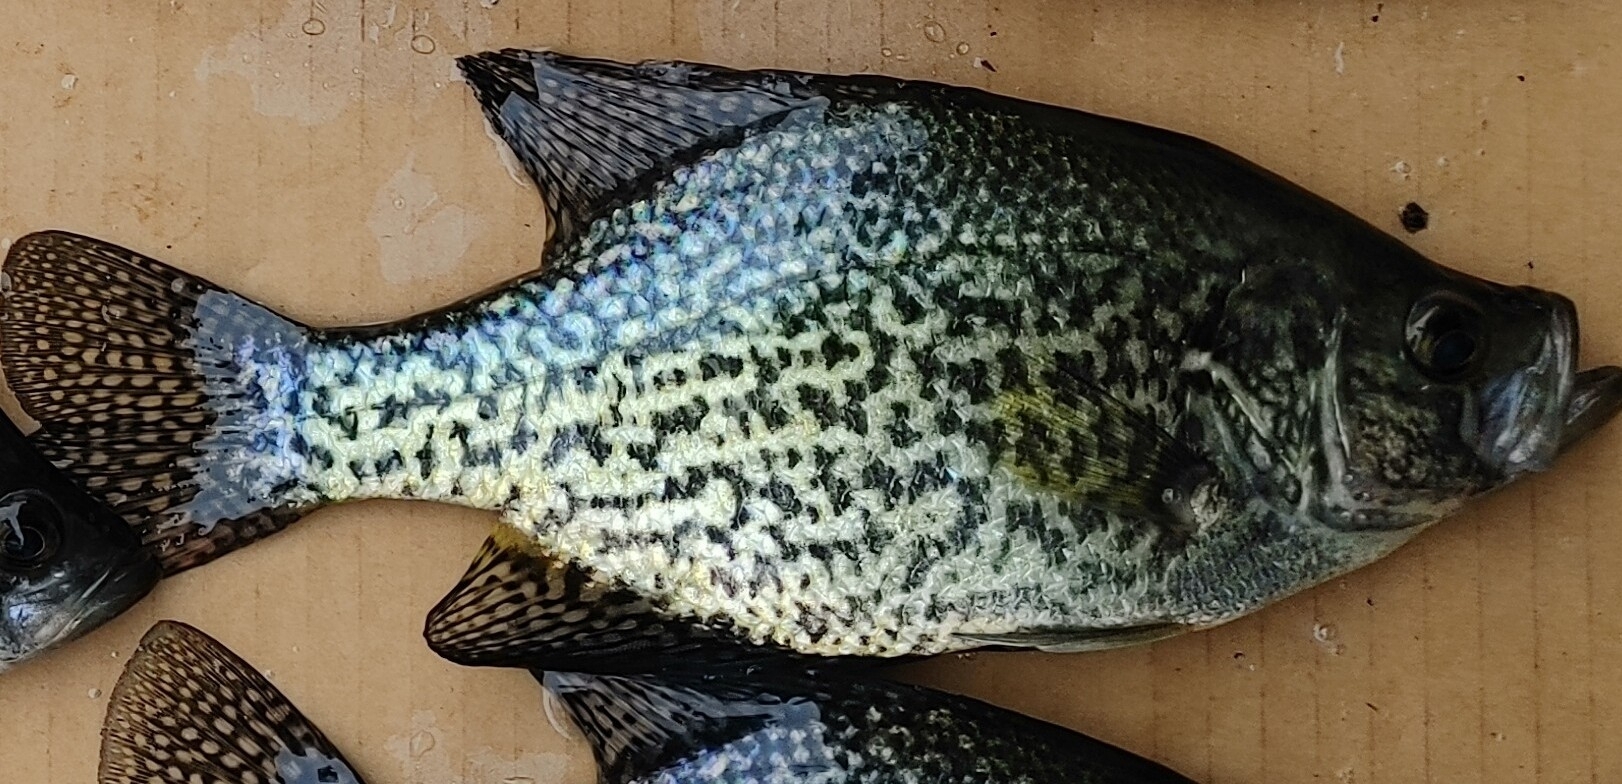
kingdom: Animalia
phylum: Chordata
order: Perciformes
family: Centrarchidae
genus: Pomoxis
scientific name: Pomoxis nigromaculatus
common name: Black crappie
